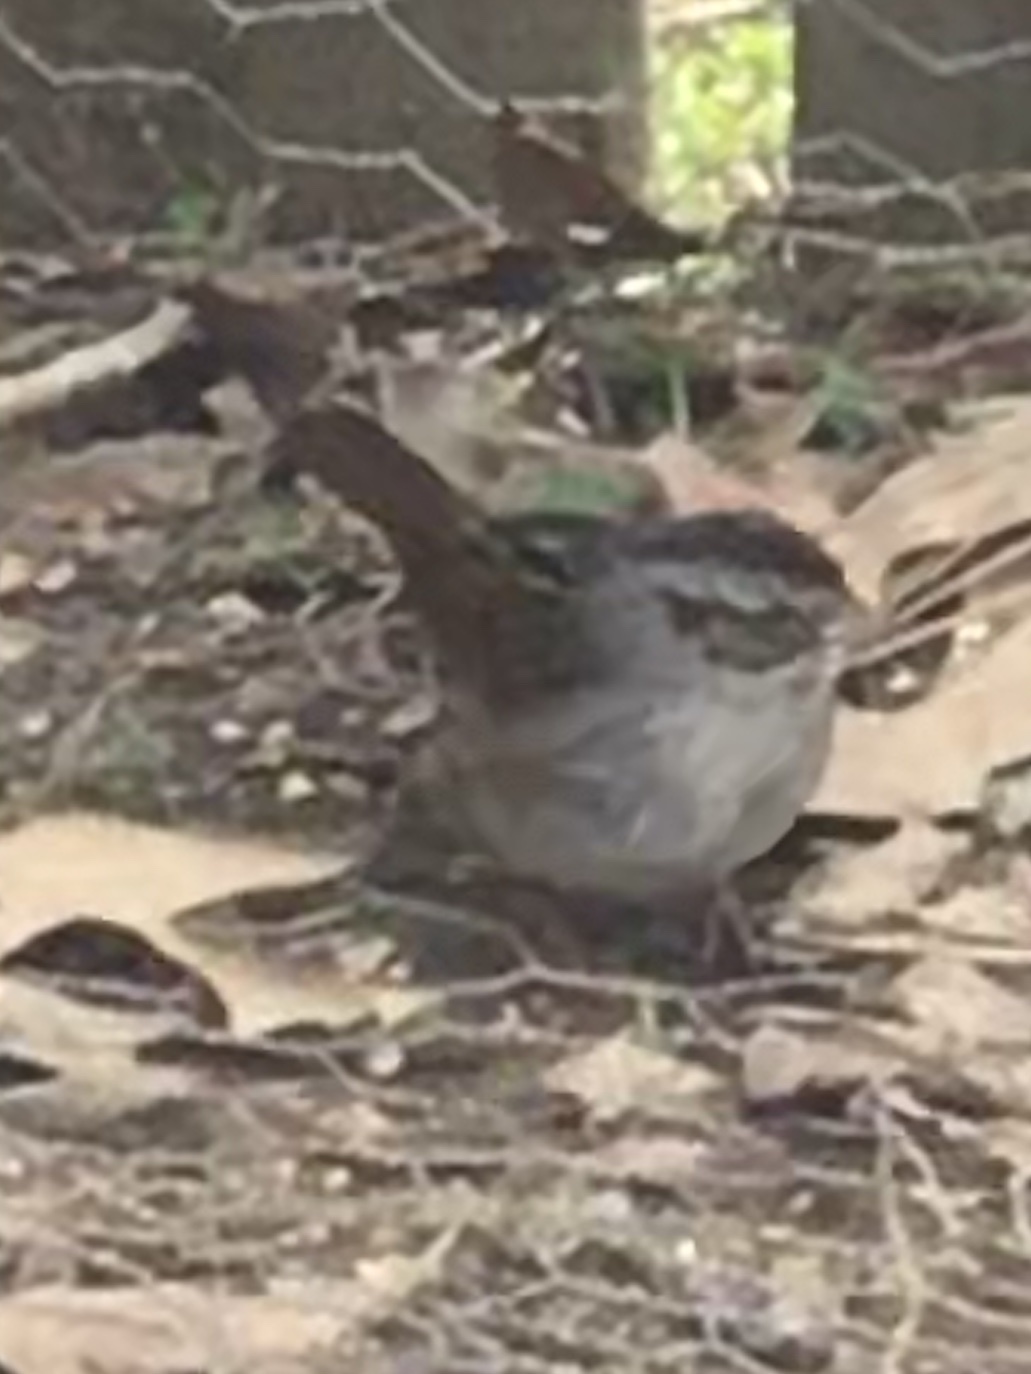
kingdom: Animalia
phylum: Chordata
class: Aves
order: Passeriformes
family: Passerellidae
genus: Melospiza
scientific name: Melospiza georgiana
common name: Swamp sparrow
